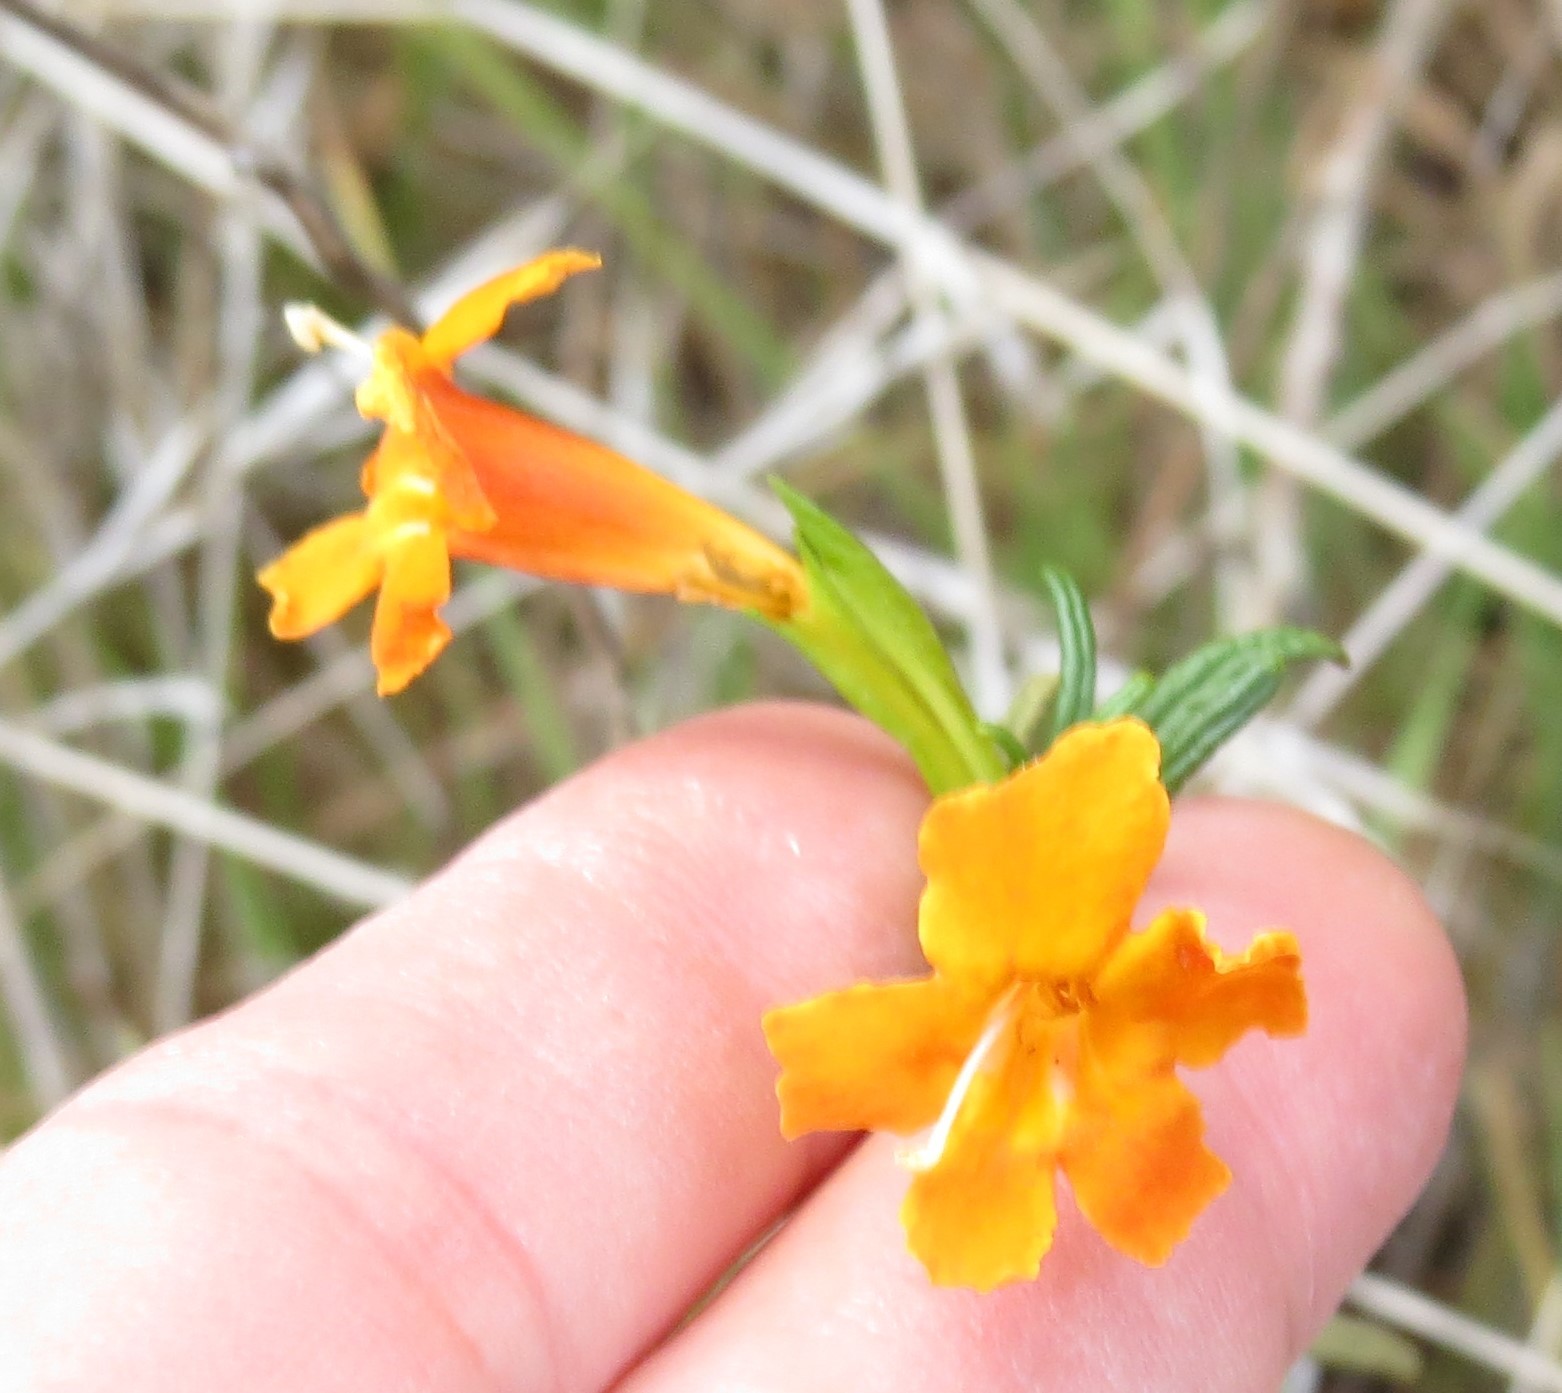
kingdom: Plantae
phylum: Tracheophyta
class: Magnoliopsida
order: Lamiales
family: Phrymaceae
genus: Diplacus
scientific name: Diplacus australis
